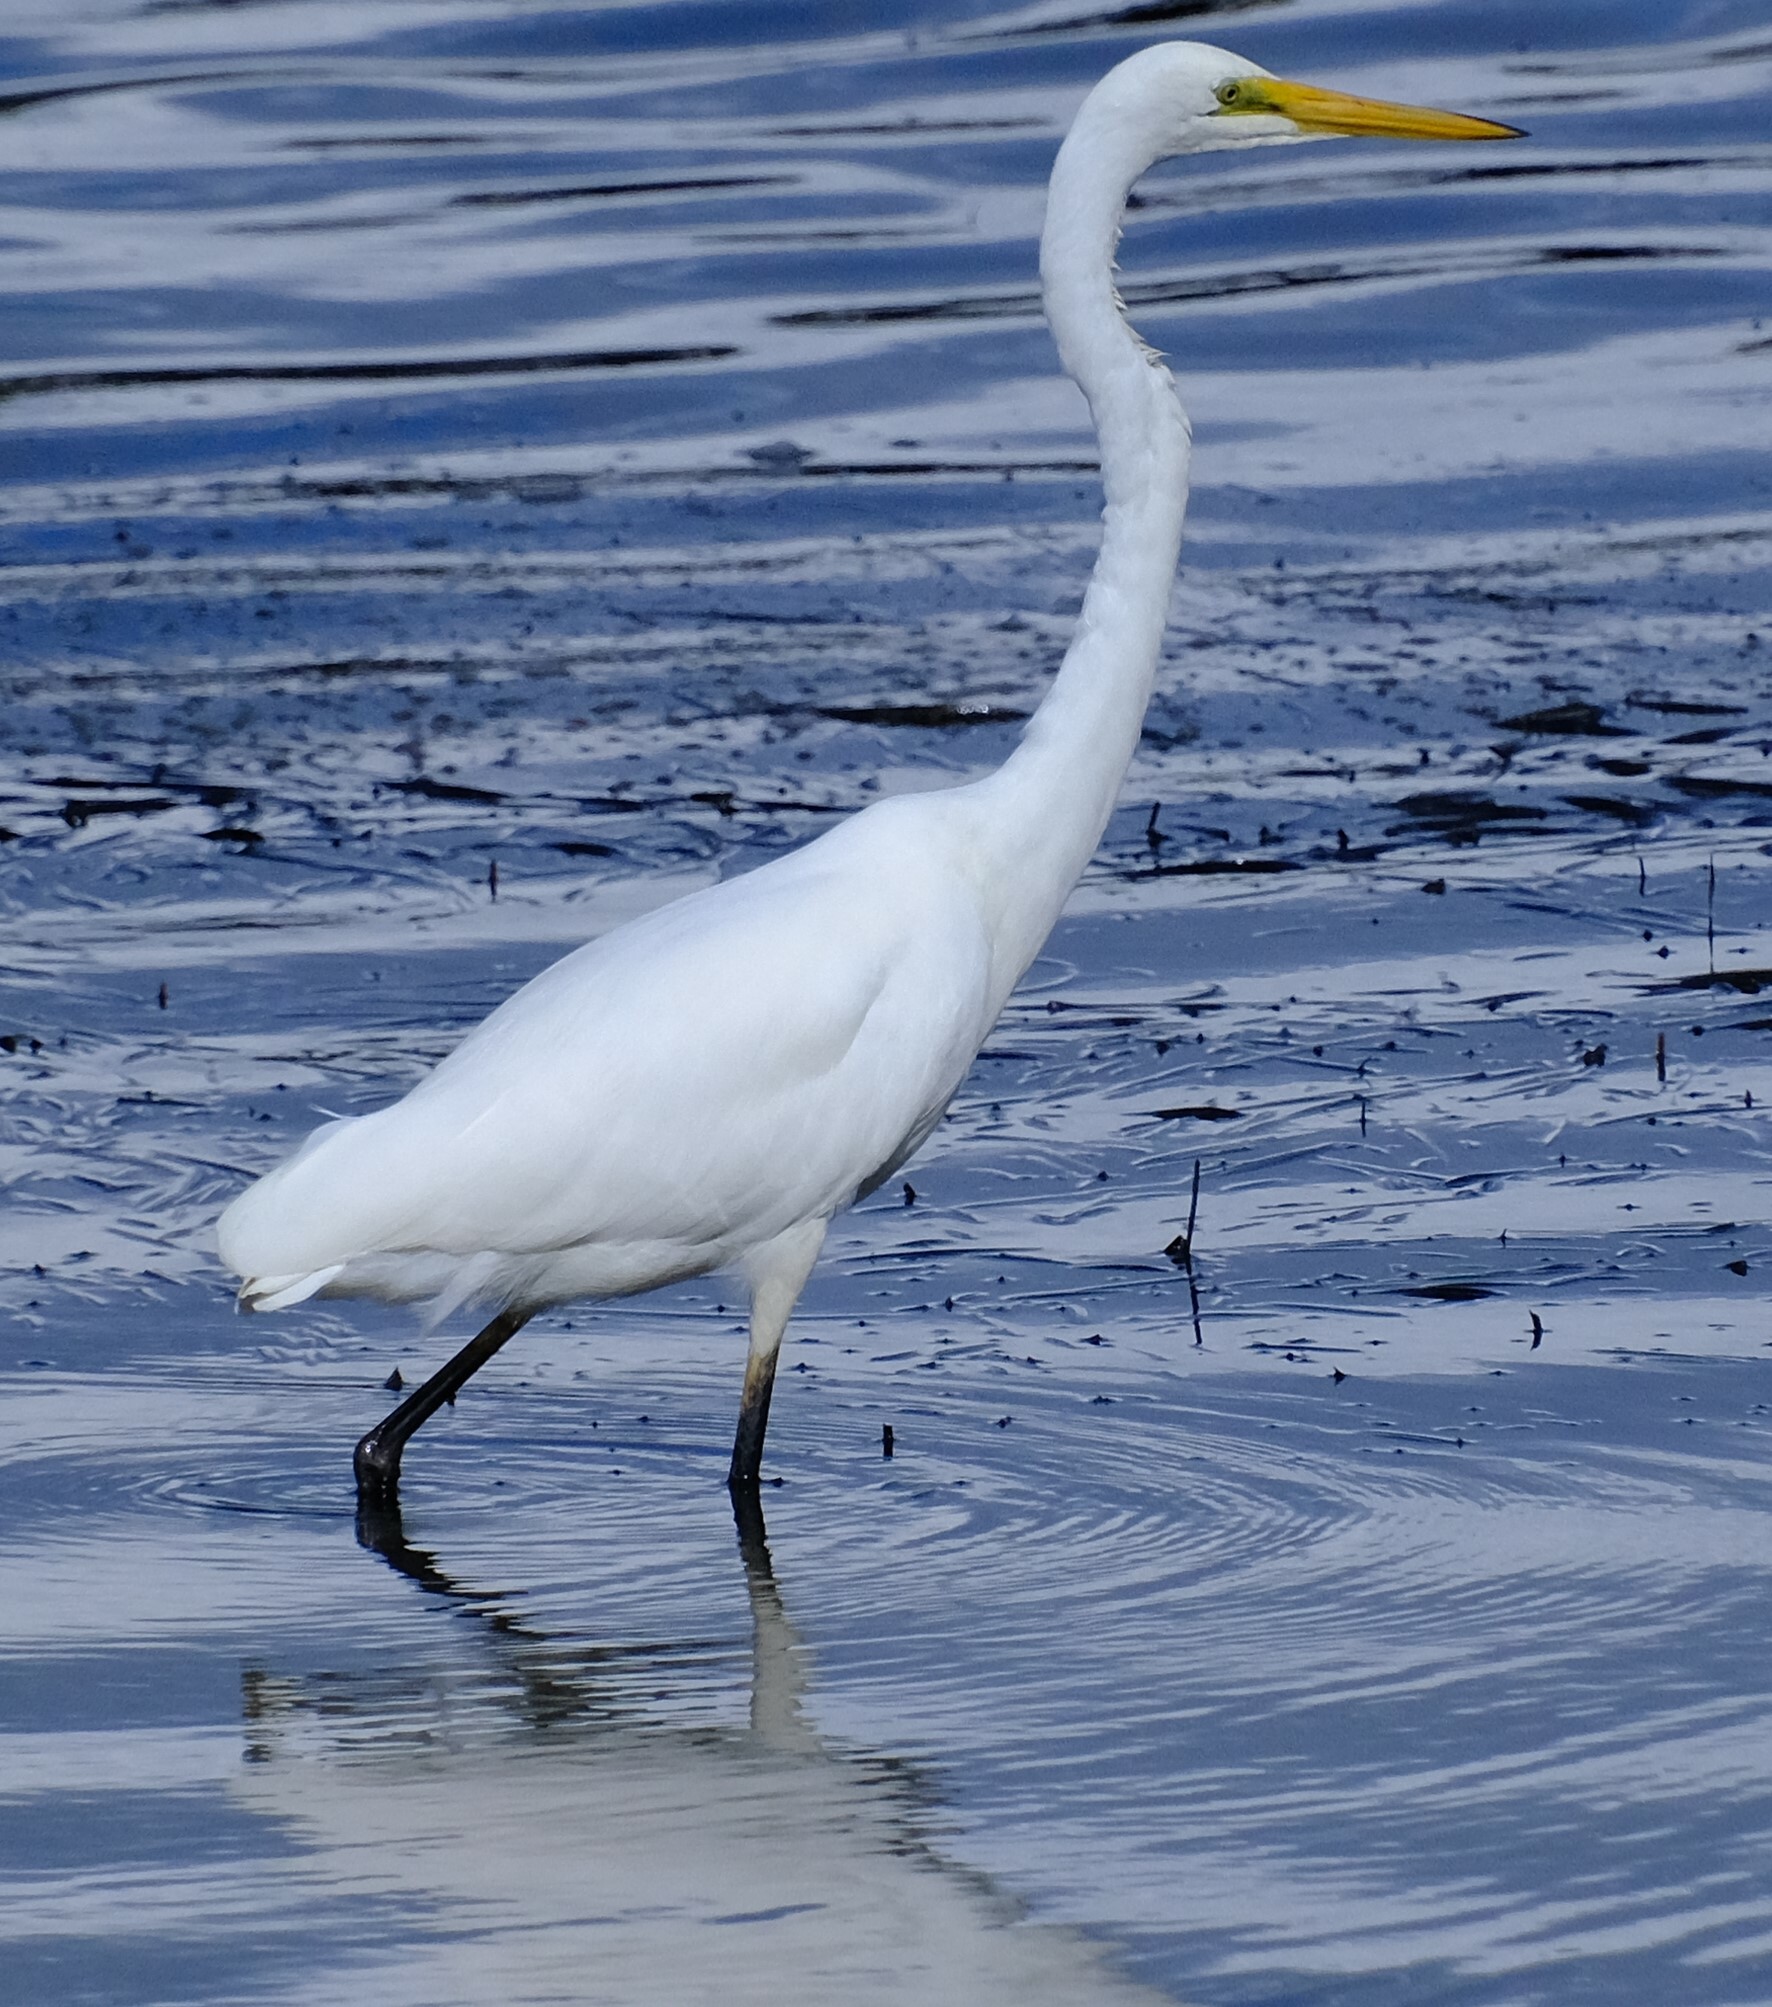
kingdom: Animalia
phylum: Chordata
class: Aves
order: Pelecaniformes
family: Ardeidae
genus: Ardea
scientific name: Ardea alba
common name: Great egret
